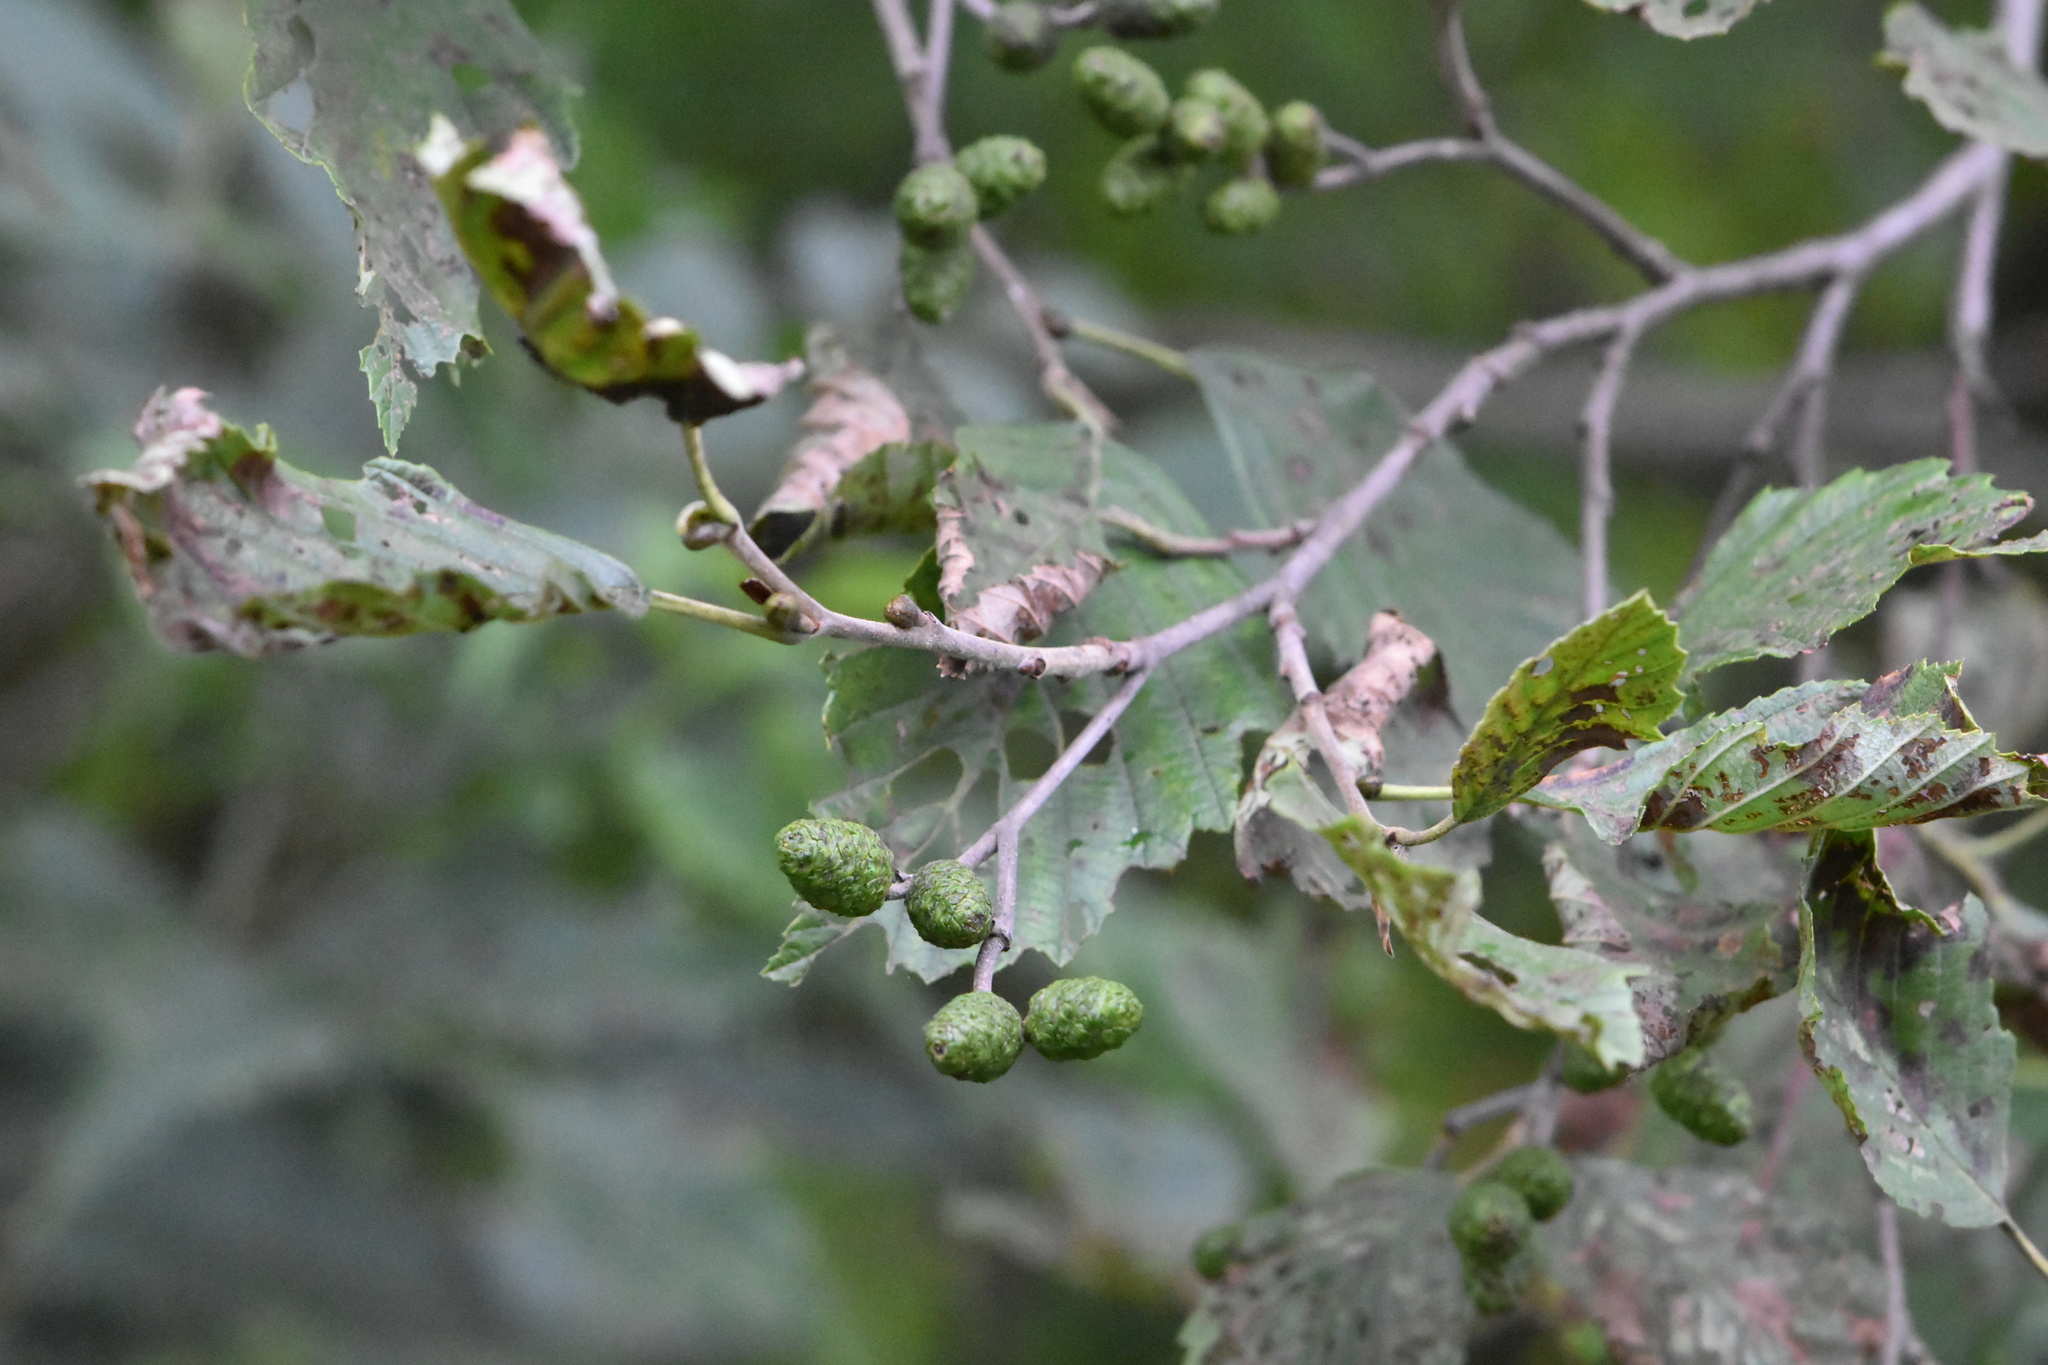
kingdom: Plantae
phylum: Tracheophyta
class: Magnoliopsida
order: Fagales
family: Betulaceae
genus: Alnus
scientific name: Alnus incana
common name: Grey alder
